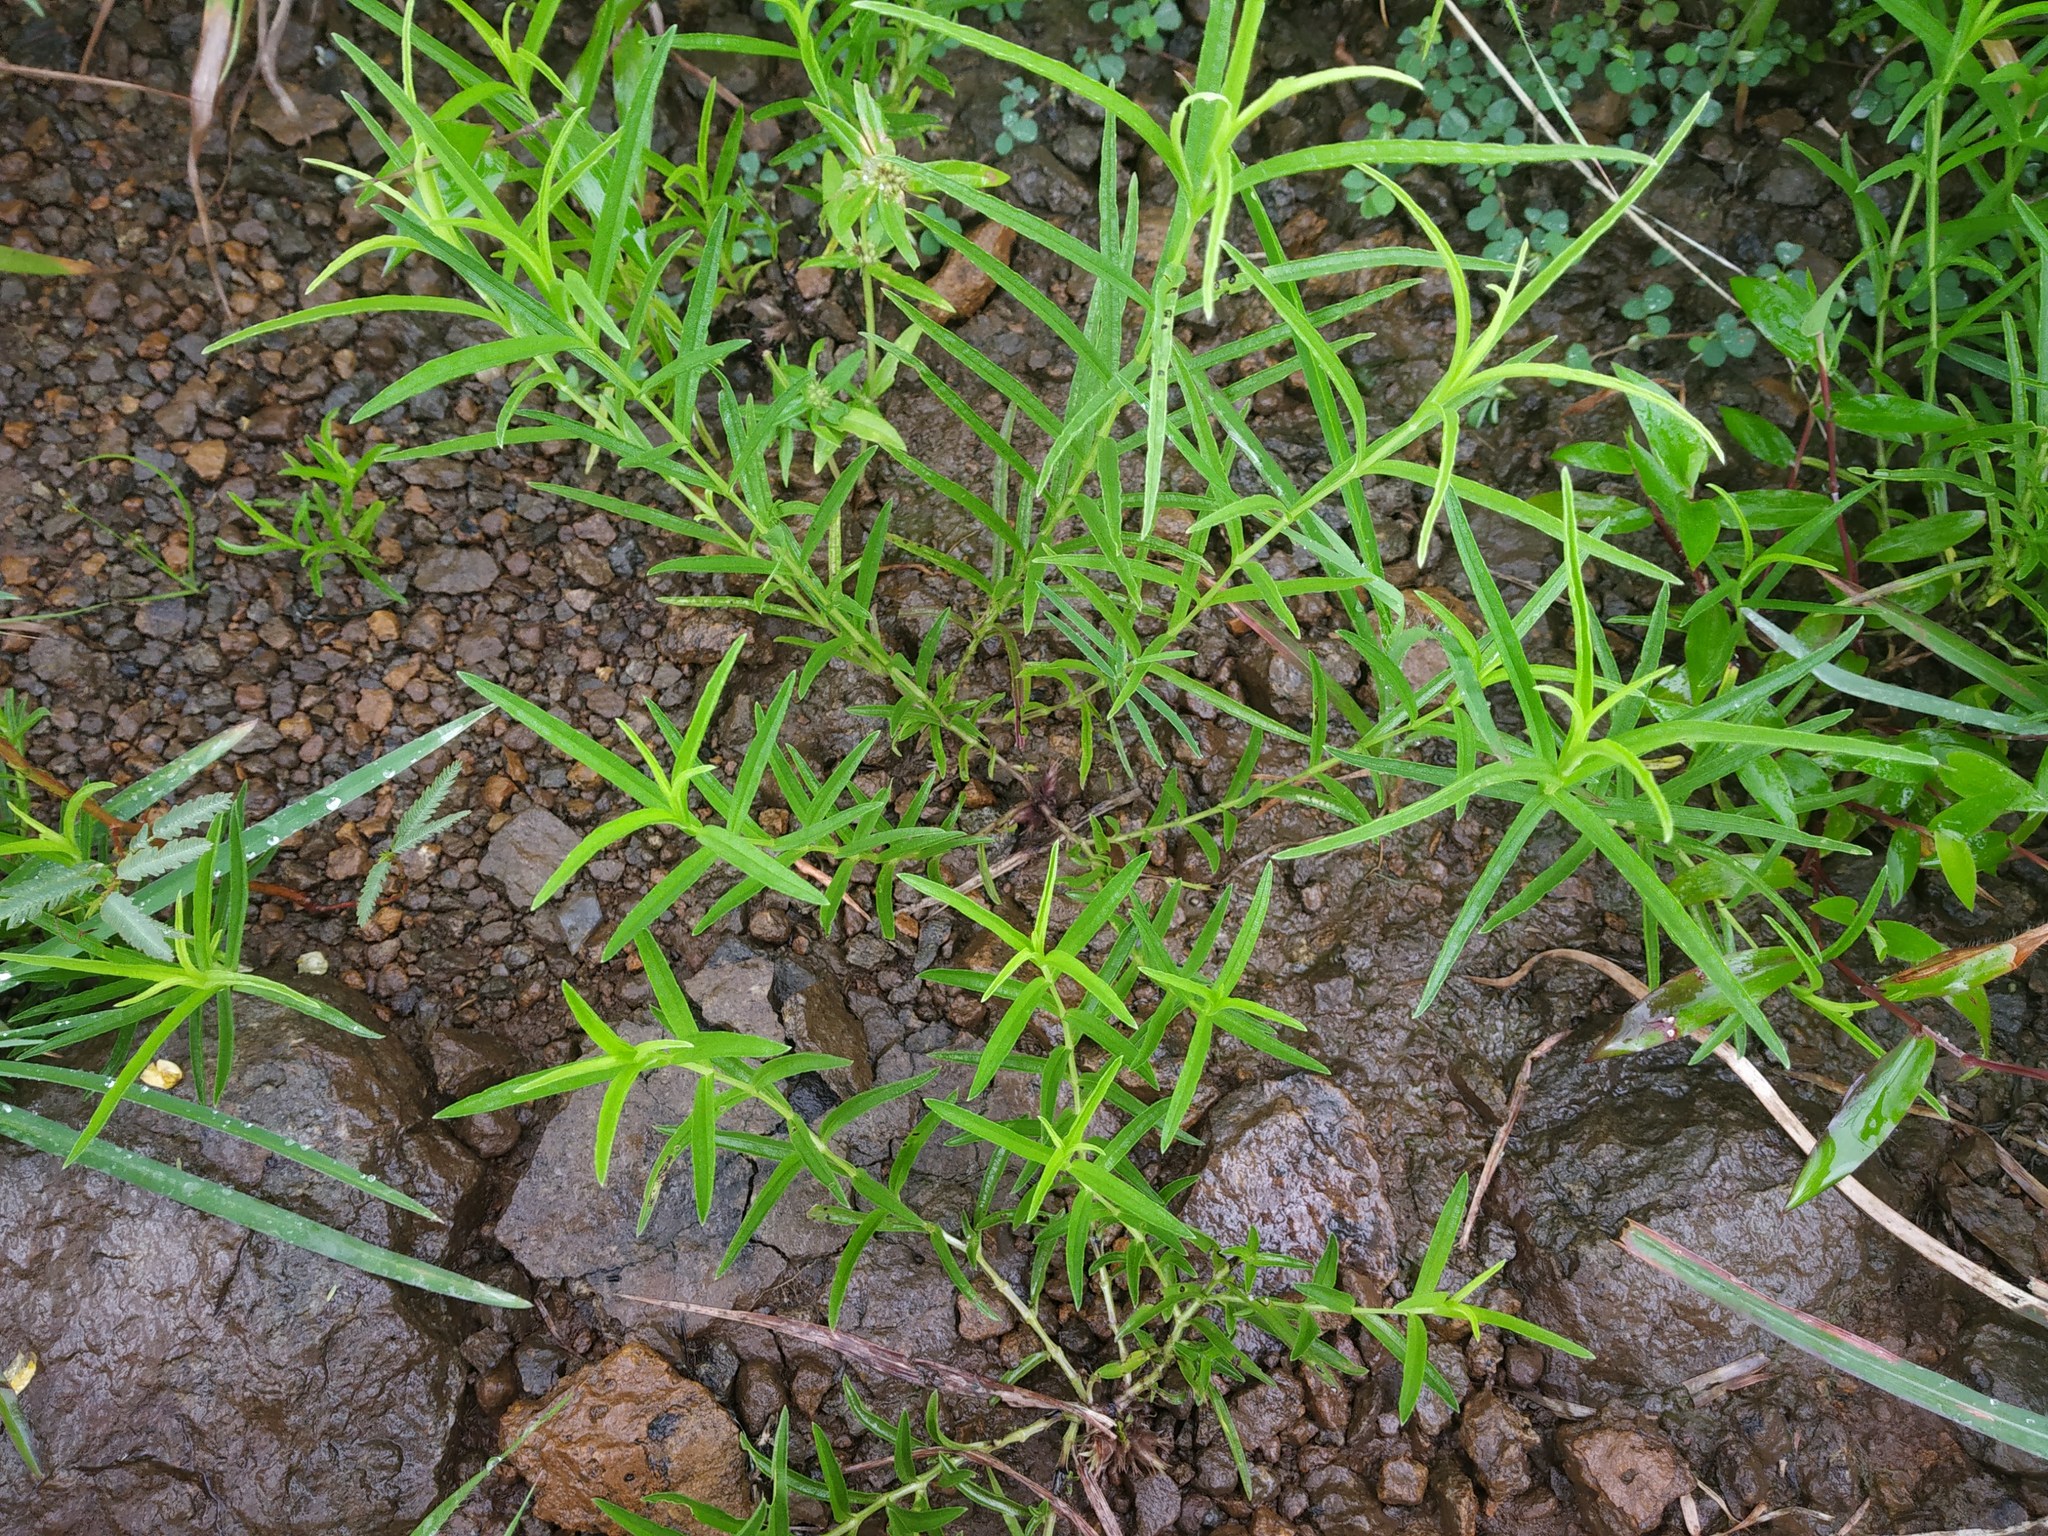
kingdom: Plantae
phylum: Tracheophyta
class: Magnoliopsida
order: Lamiales
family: Acanthaceae
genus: Lepidagathis
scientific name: Lepidagathis trinervis
